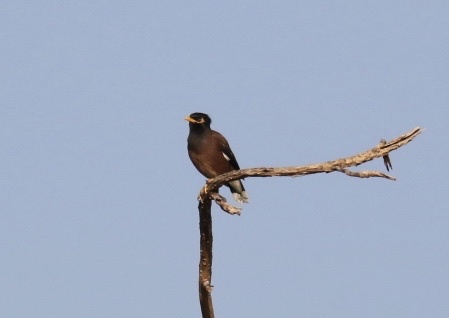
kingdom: Animalia
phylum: Chordata
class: Aves
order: Passeriformes
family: Sturnidae
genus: Acridotheres
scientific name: Acridotheres tristis
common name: Common myna
